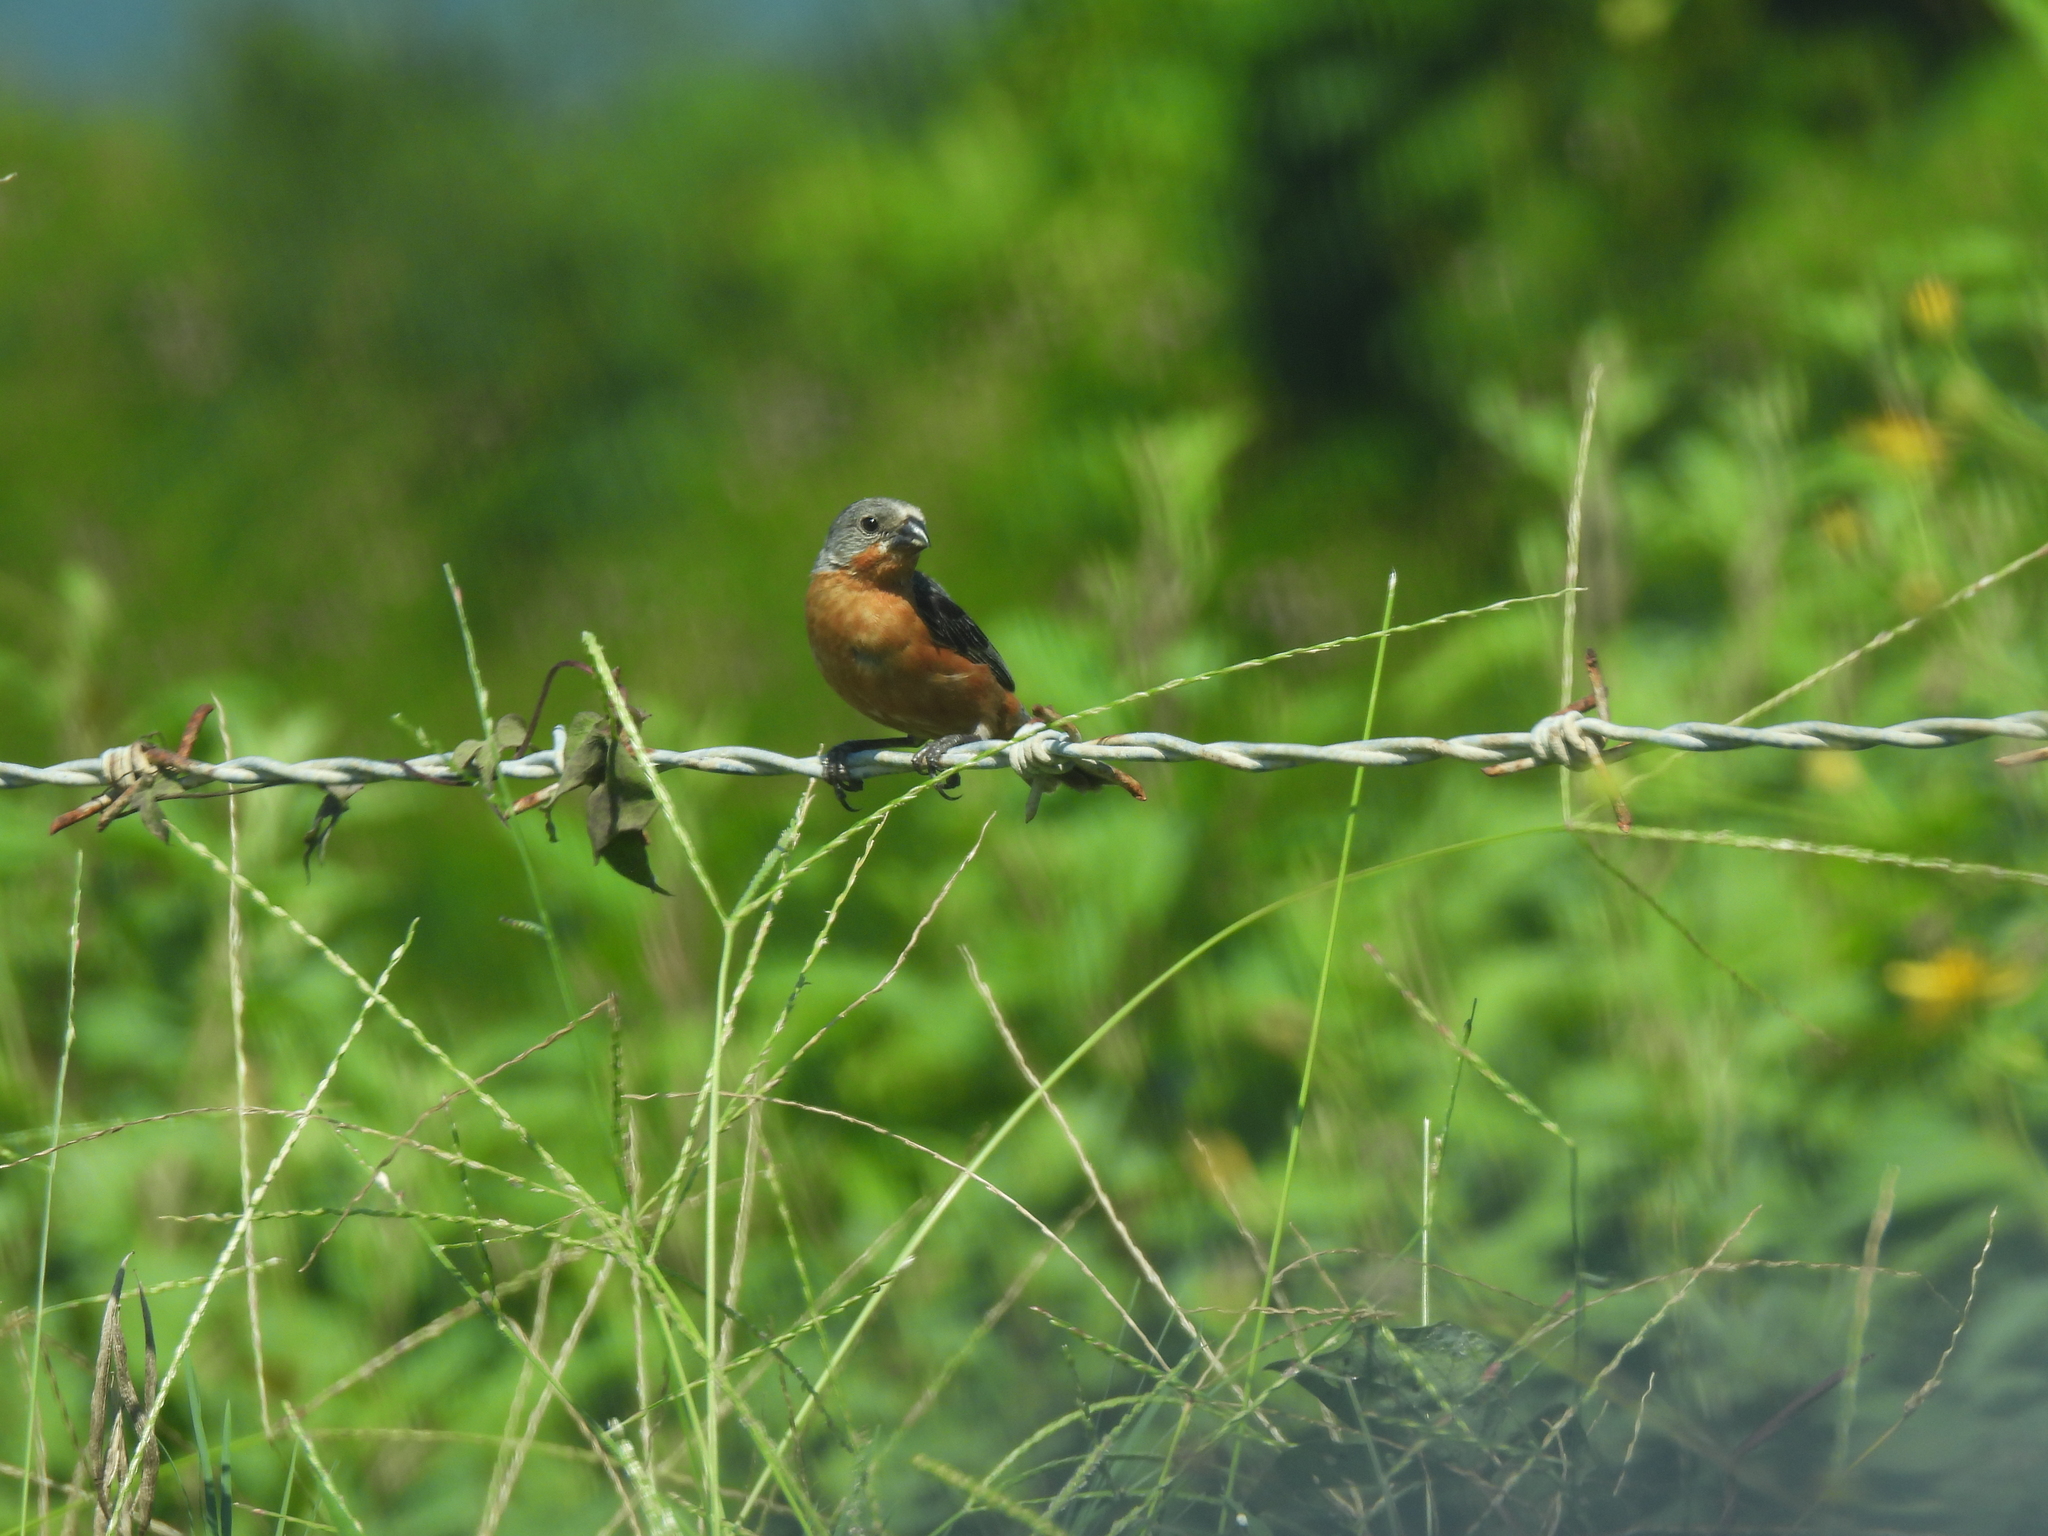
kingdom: Animalia
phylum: Chordata
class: Aves
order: Passeriformes
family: Thraupidae
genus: Sporophila
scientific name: Sporophila minuta
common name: Ruddy-breasted seedeater
